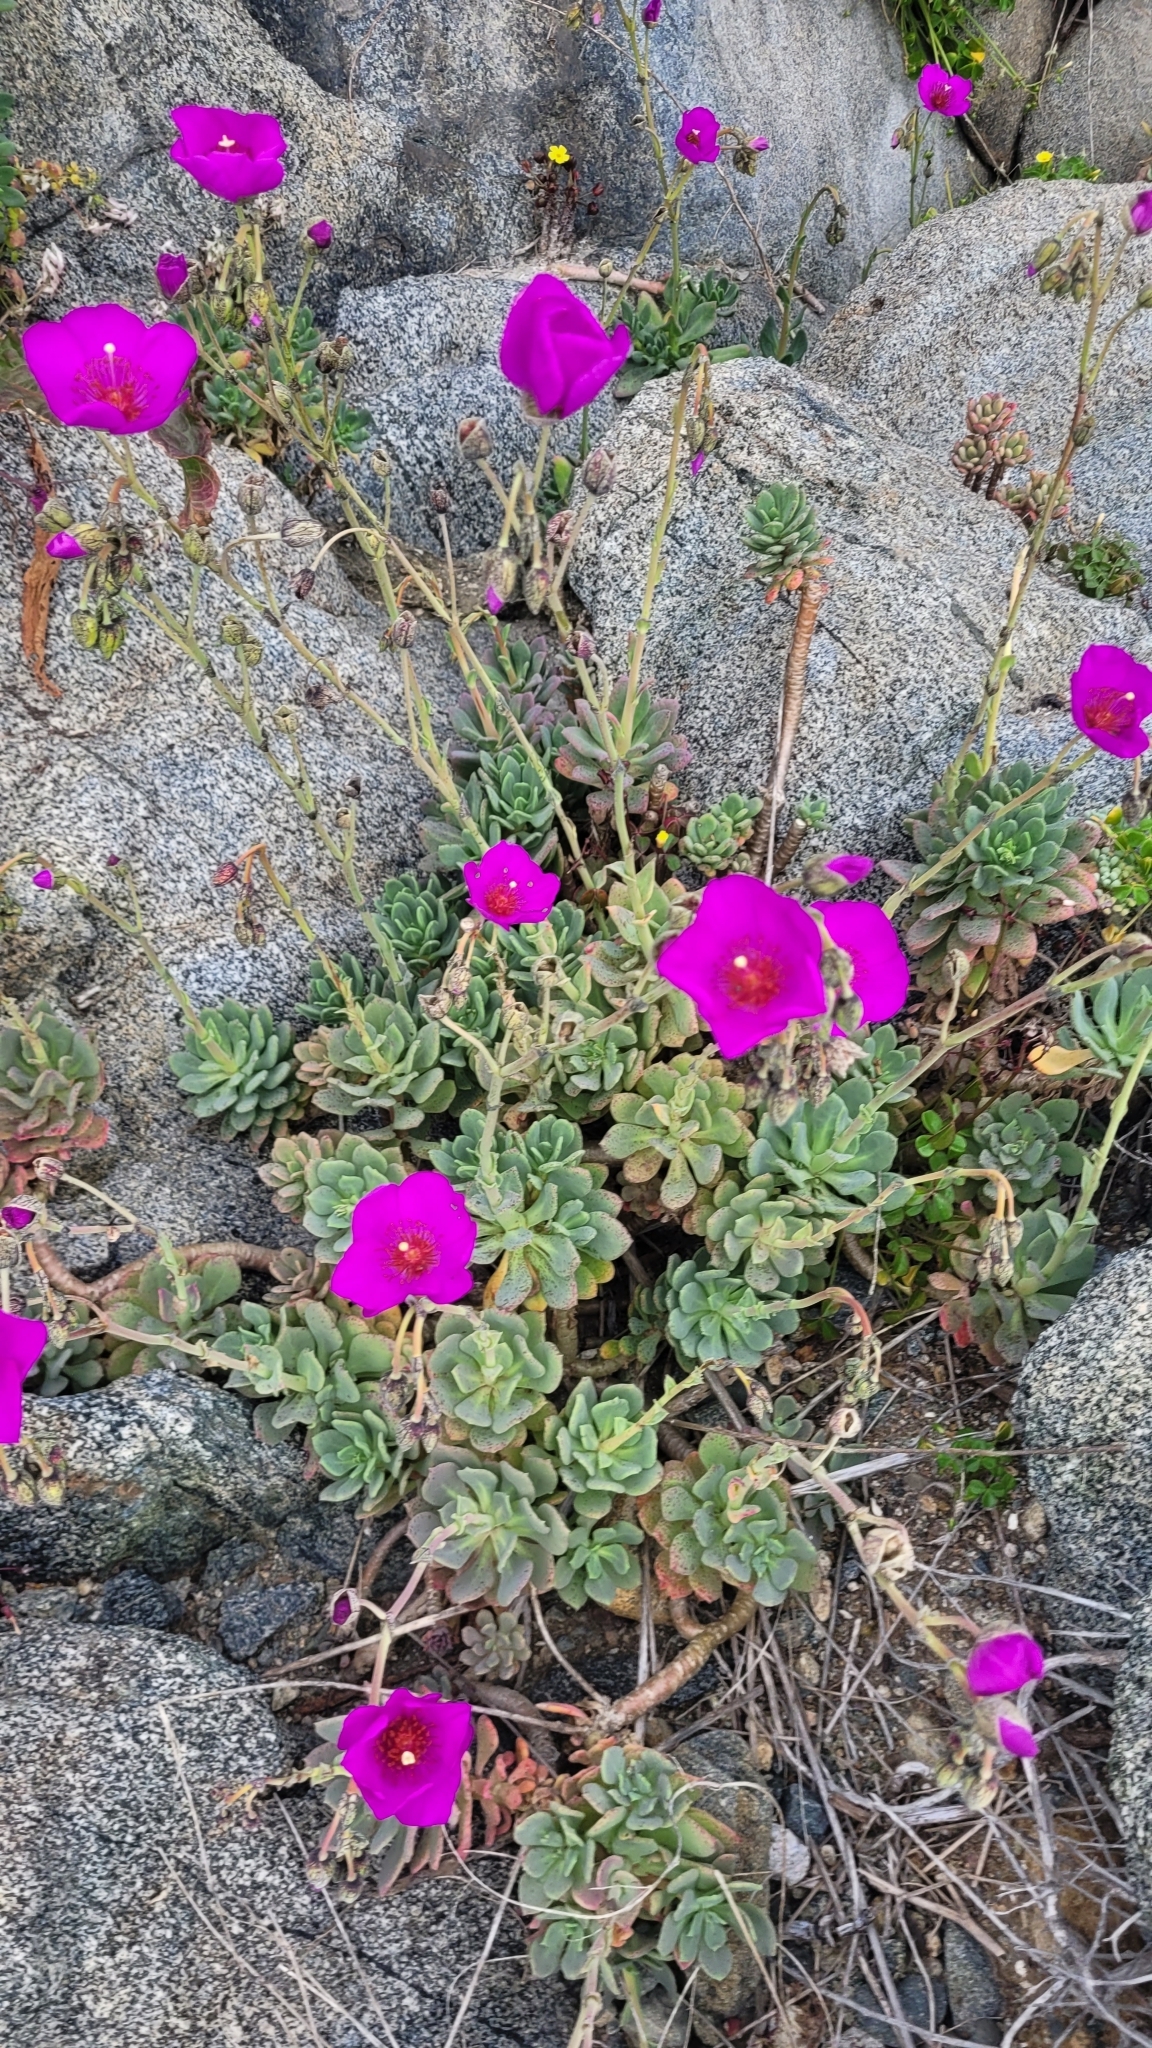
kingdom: Plantae
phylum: Tracheophyta
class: Magnoliopsida
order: Caryophyllales
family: Montiaceae
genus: Cistanthe
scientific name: Cistanthe laxiflora
